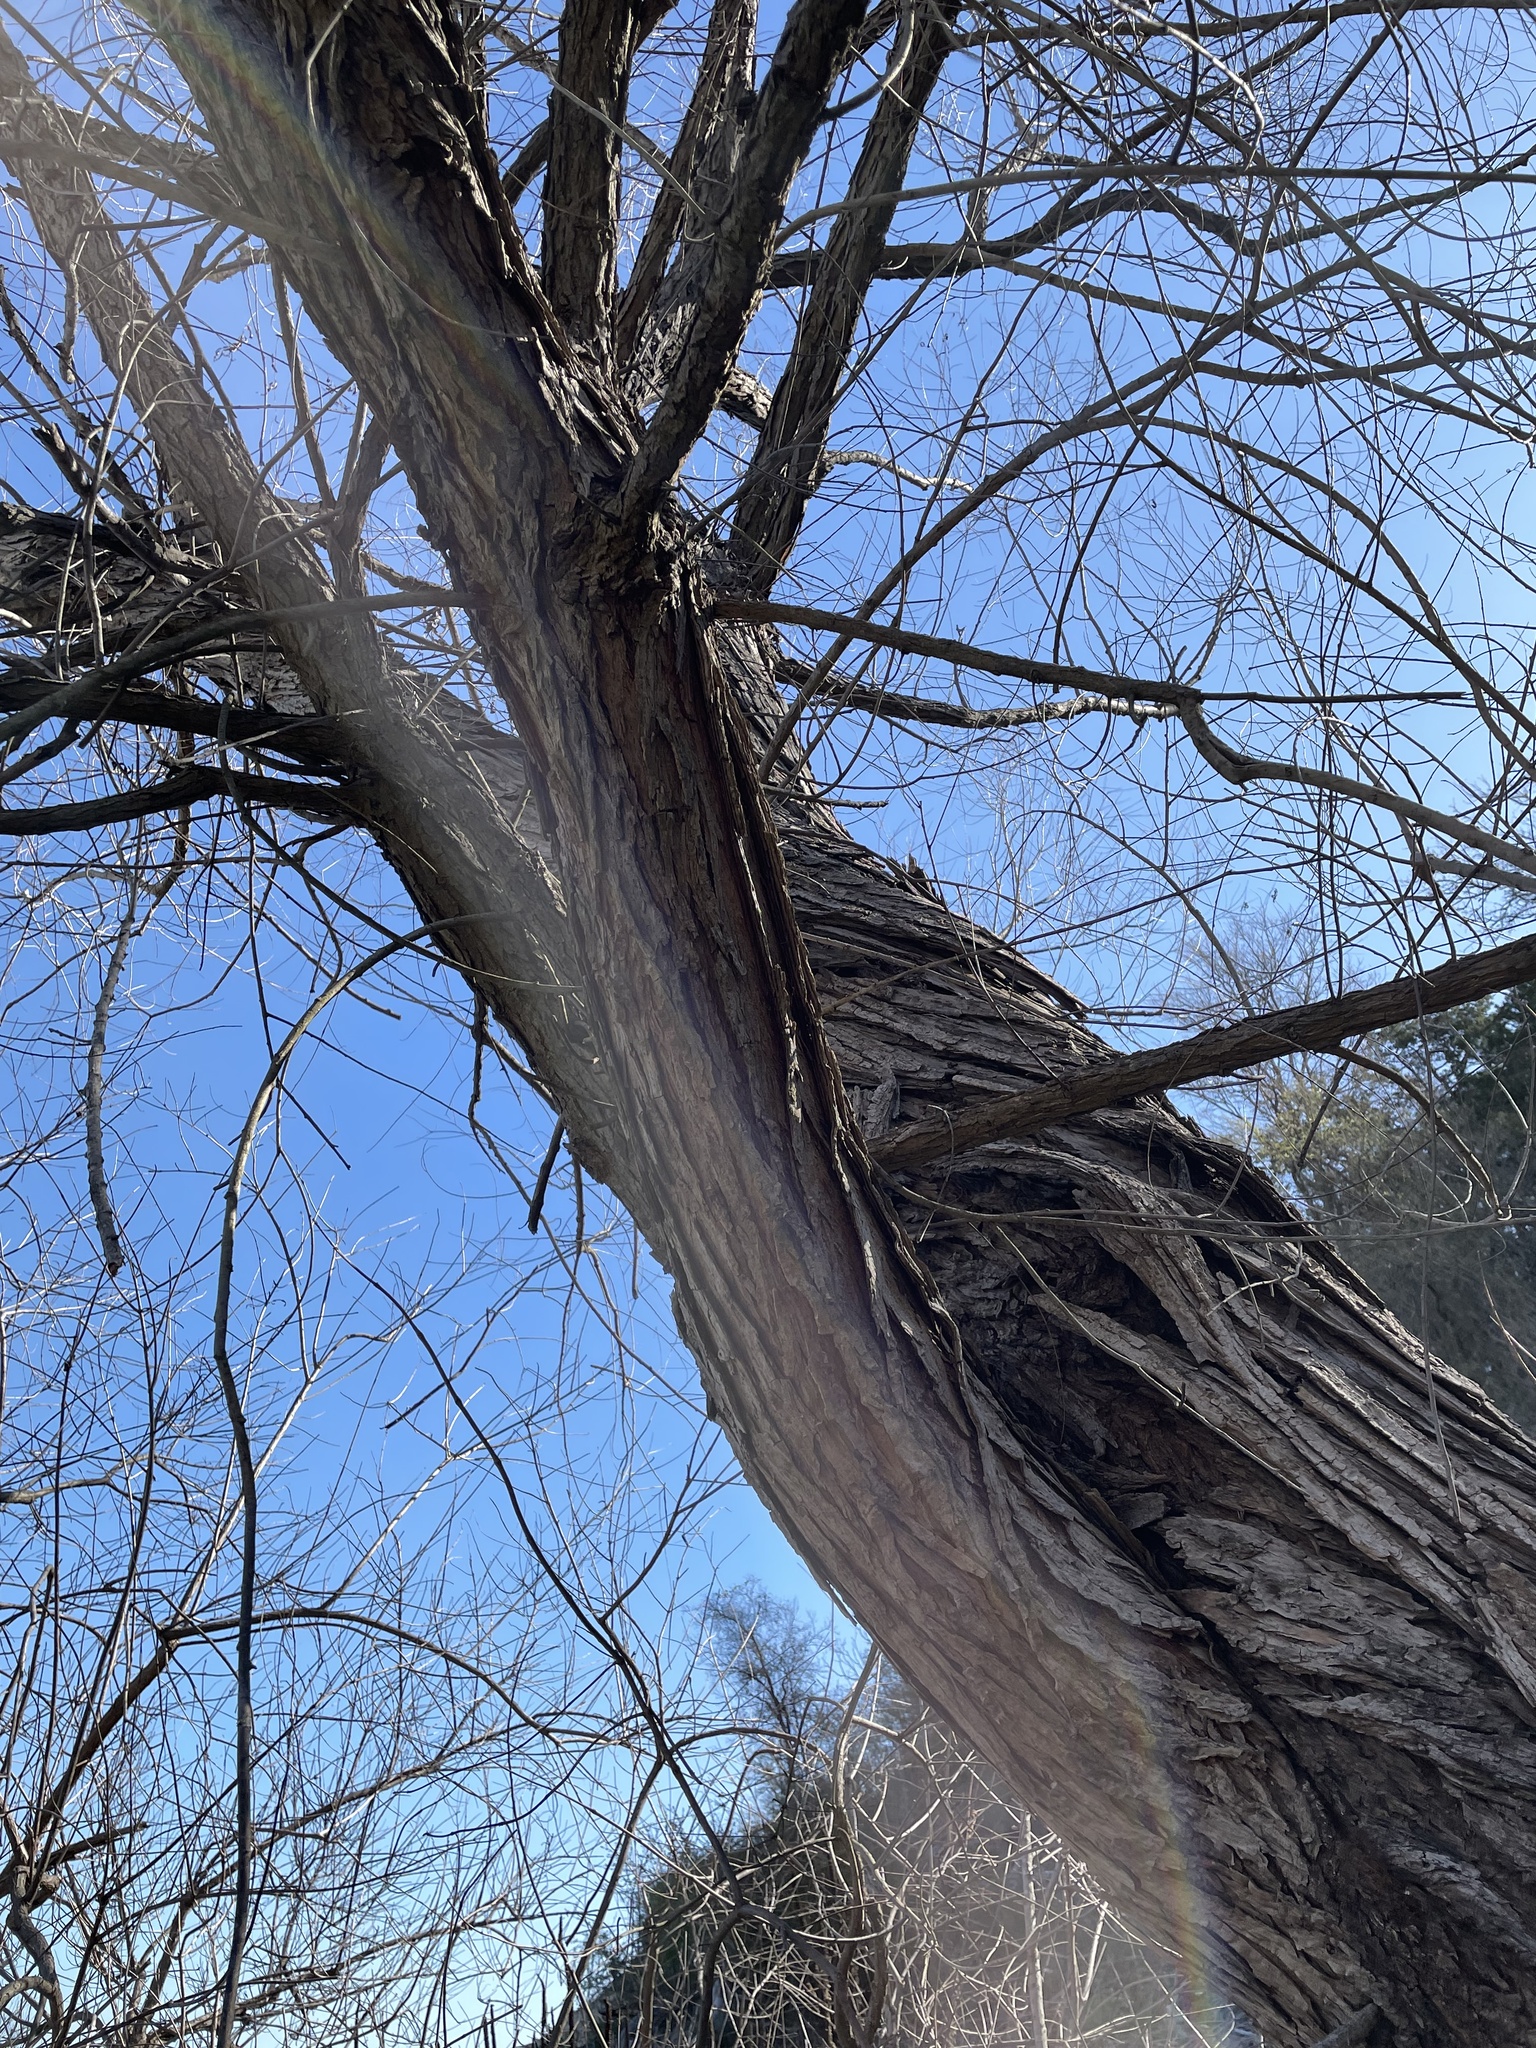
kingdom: Plantae
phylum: Tracheophyta
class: Magnoliopsida
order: Malpighiales
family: Salicaceae
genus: Salix
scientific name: Salix nigra
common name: Black willow
